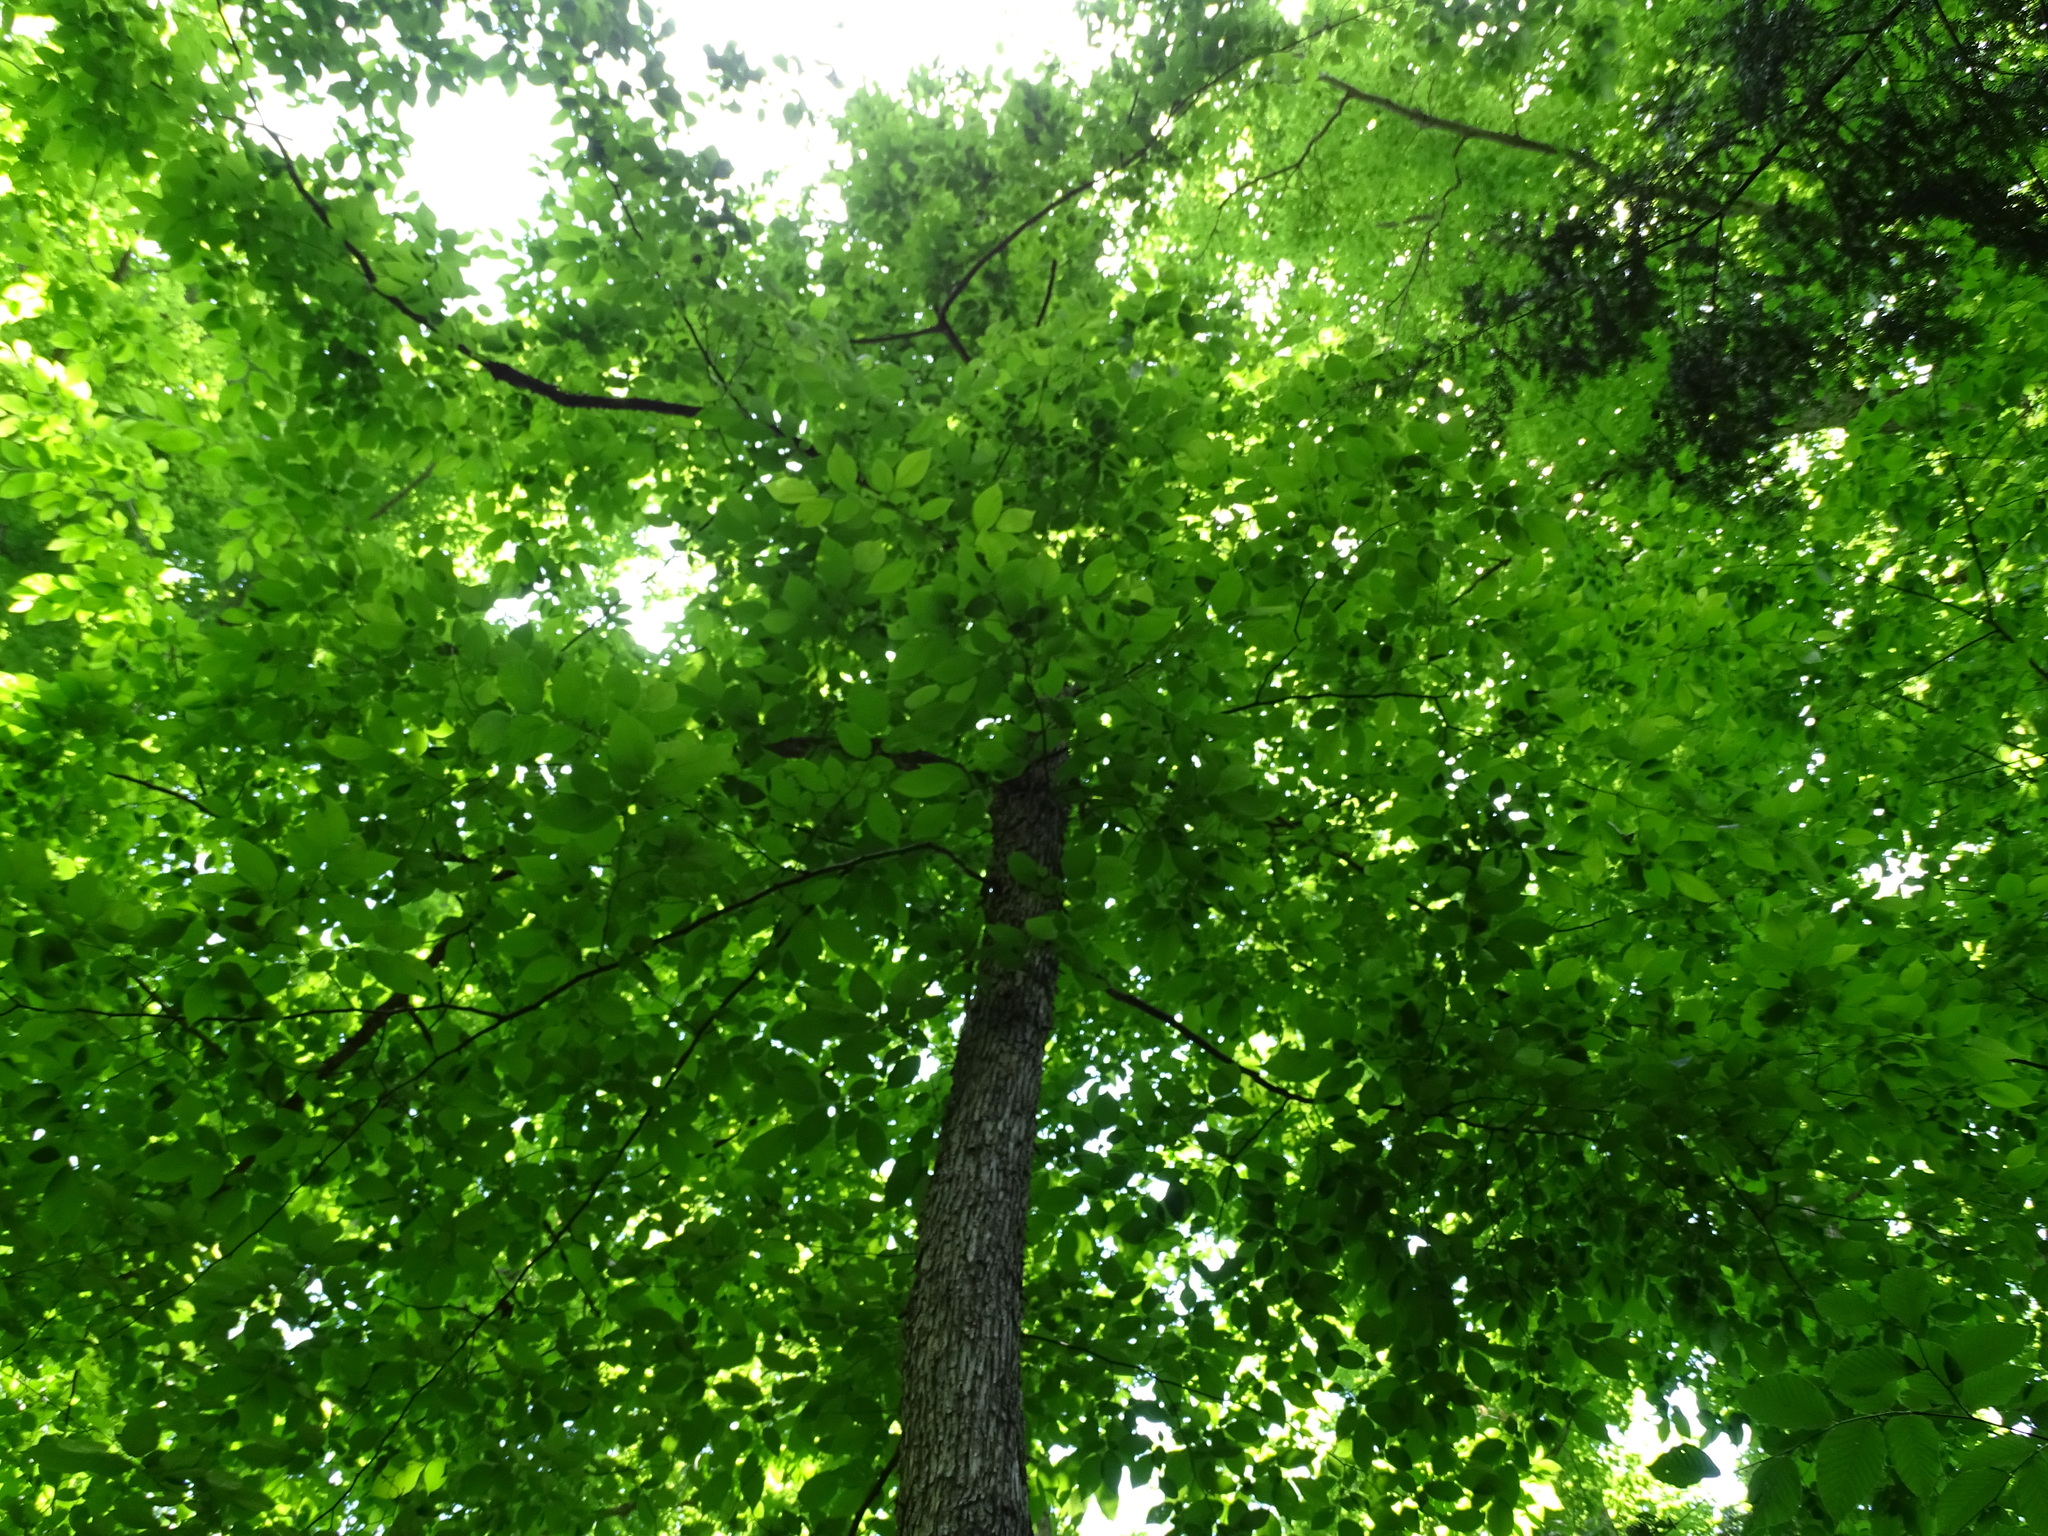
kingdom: Plantae
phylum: Tracheophyta
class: Magnoliopsida
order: Fagales
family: Betulaceae
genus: Ostrya
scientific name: Ostrya virginiana
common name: Ironwood
